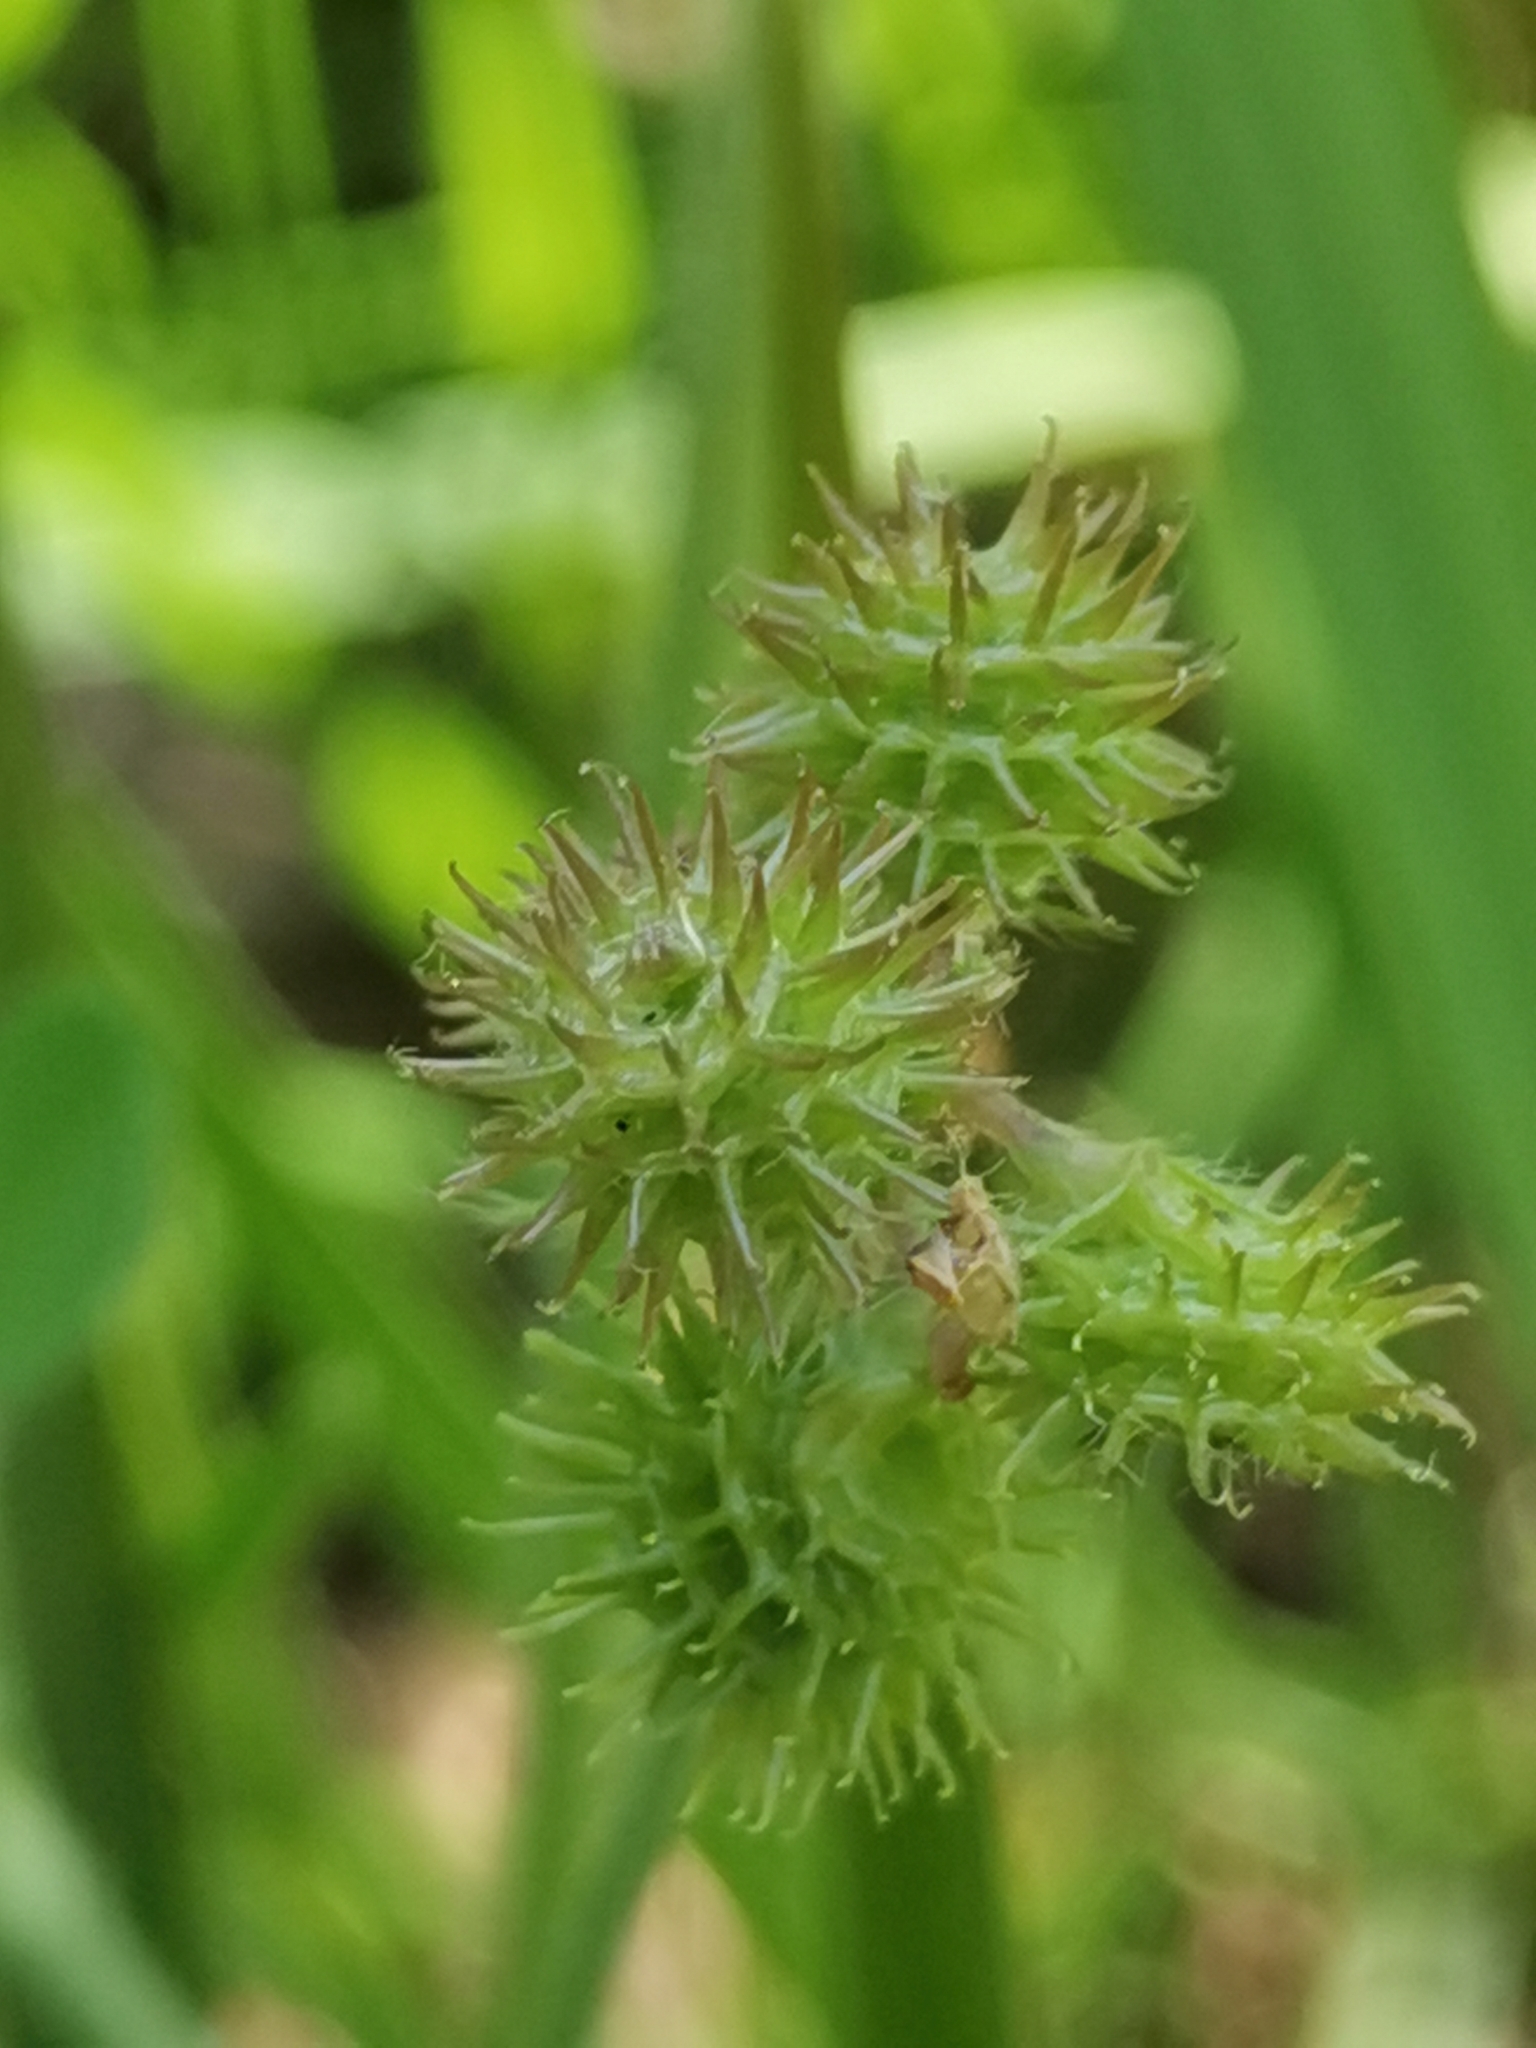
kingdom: Plantae
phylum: Tracheophyta
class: Magnoliopsida
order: Fabales
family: Fabaceae
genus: Medicago
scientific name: Medicago minima
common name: Little bur-clover
